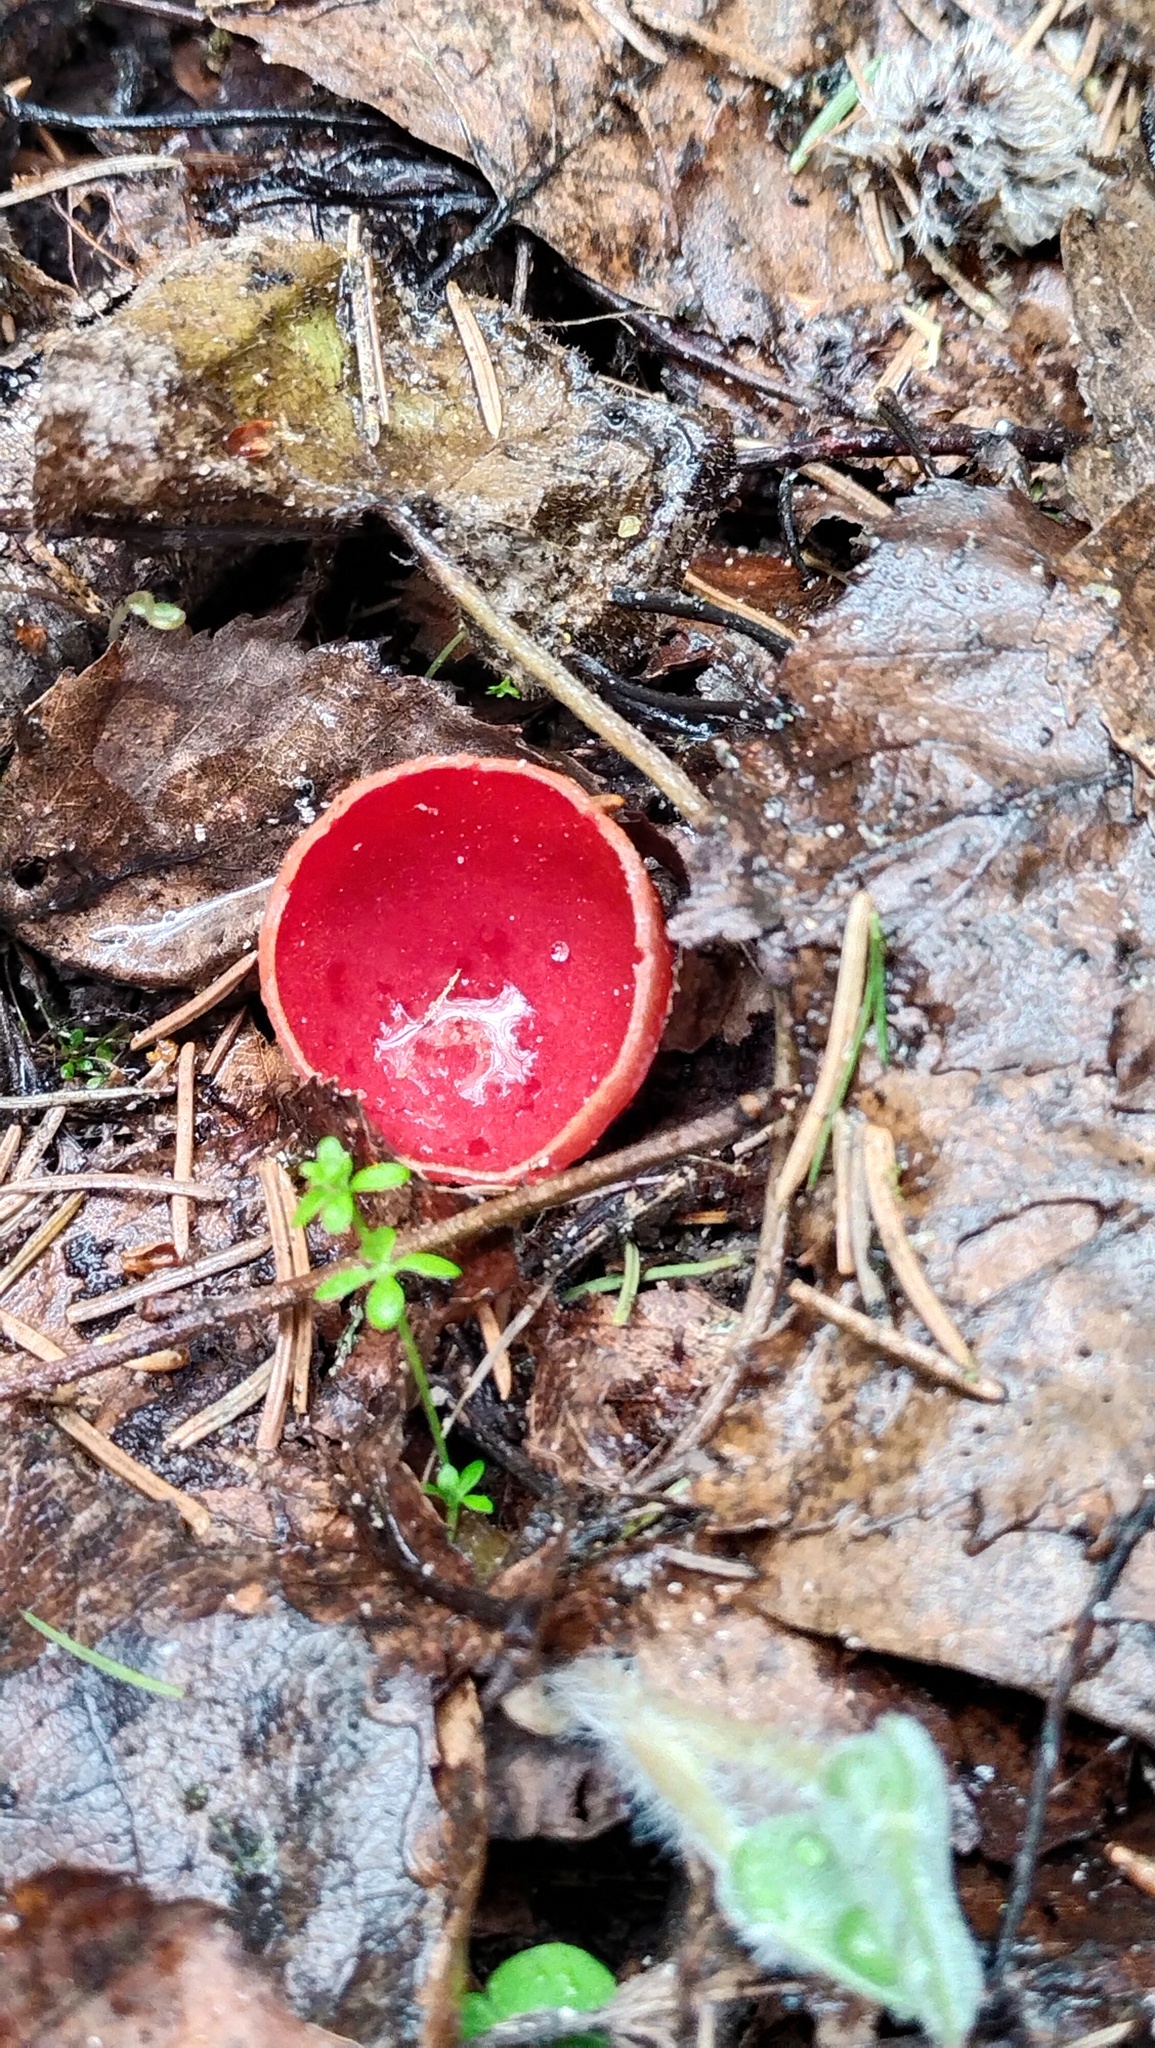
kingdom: Fungi
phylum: Ascomycota
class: Pezizomycetes
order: Pezizales
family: Sarcoscyphaceae
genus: Sarcoscypha
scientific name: Sarcoscypha austriaca
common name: Scarlet elfcup
